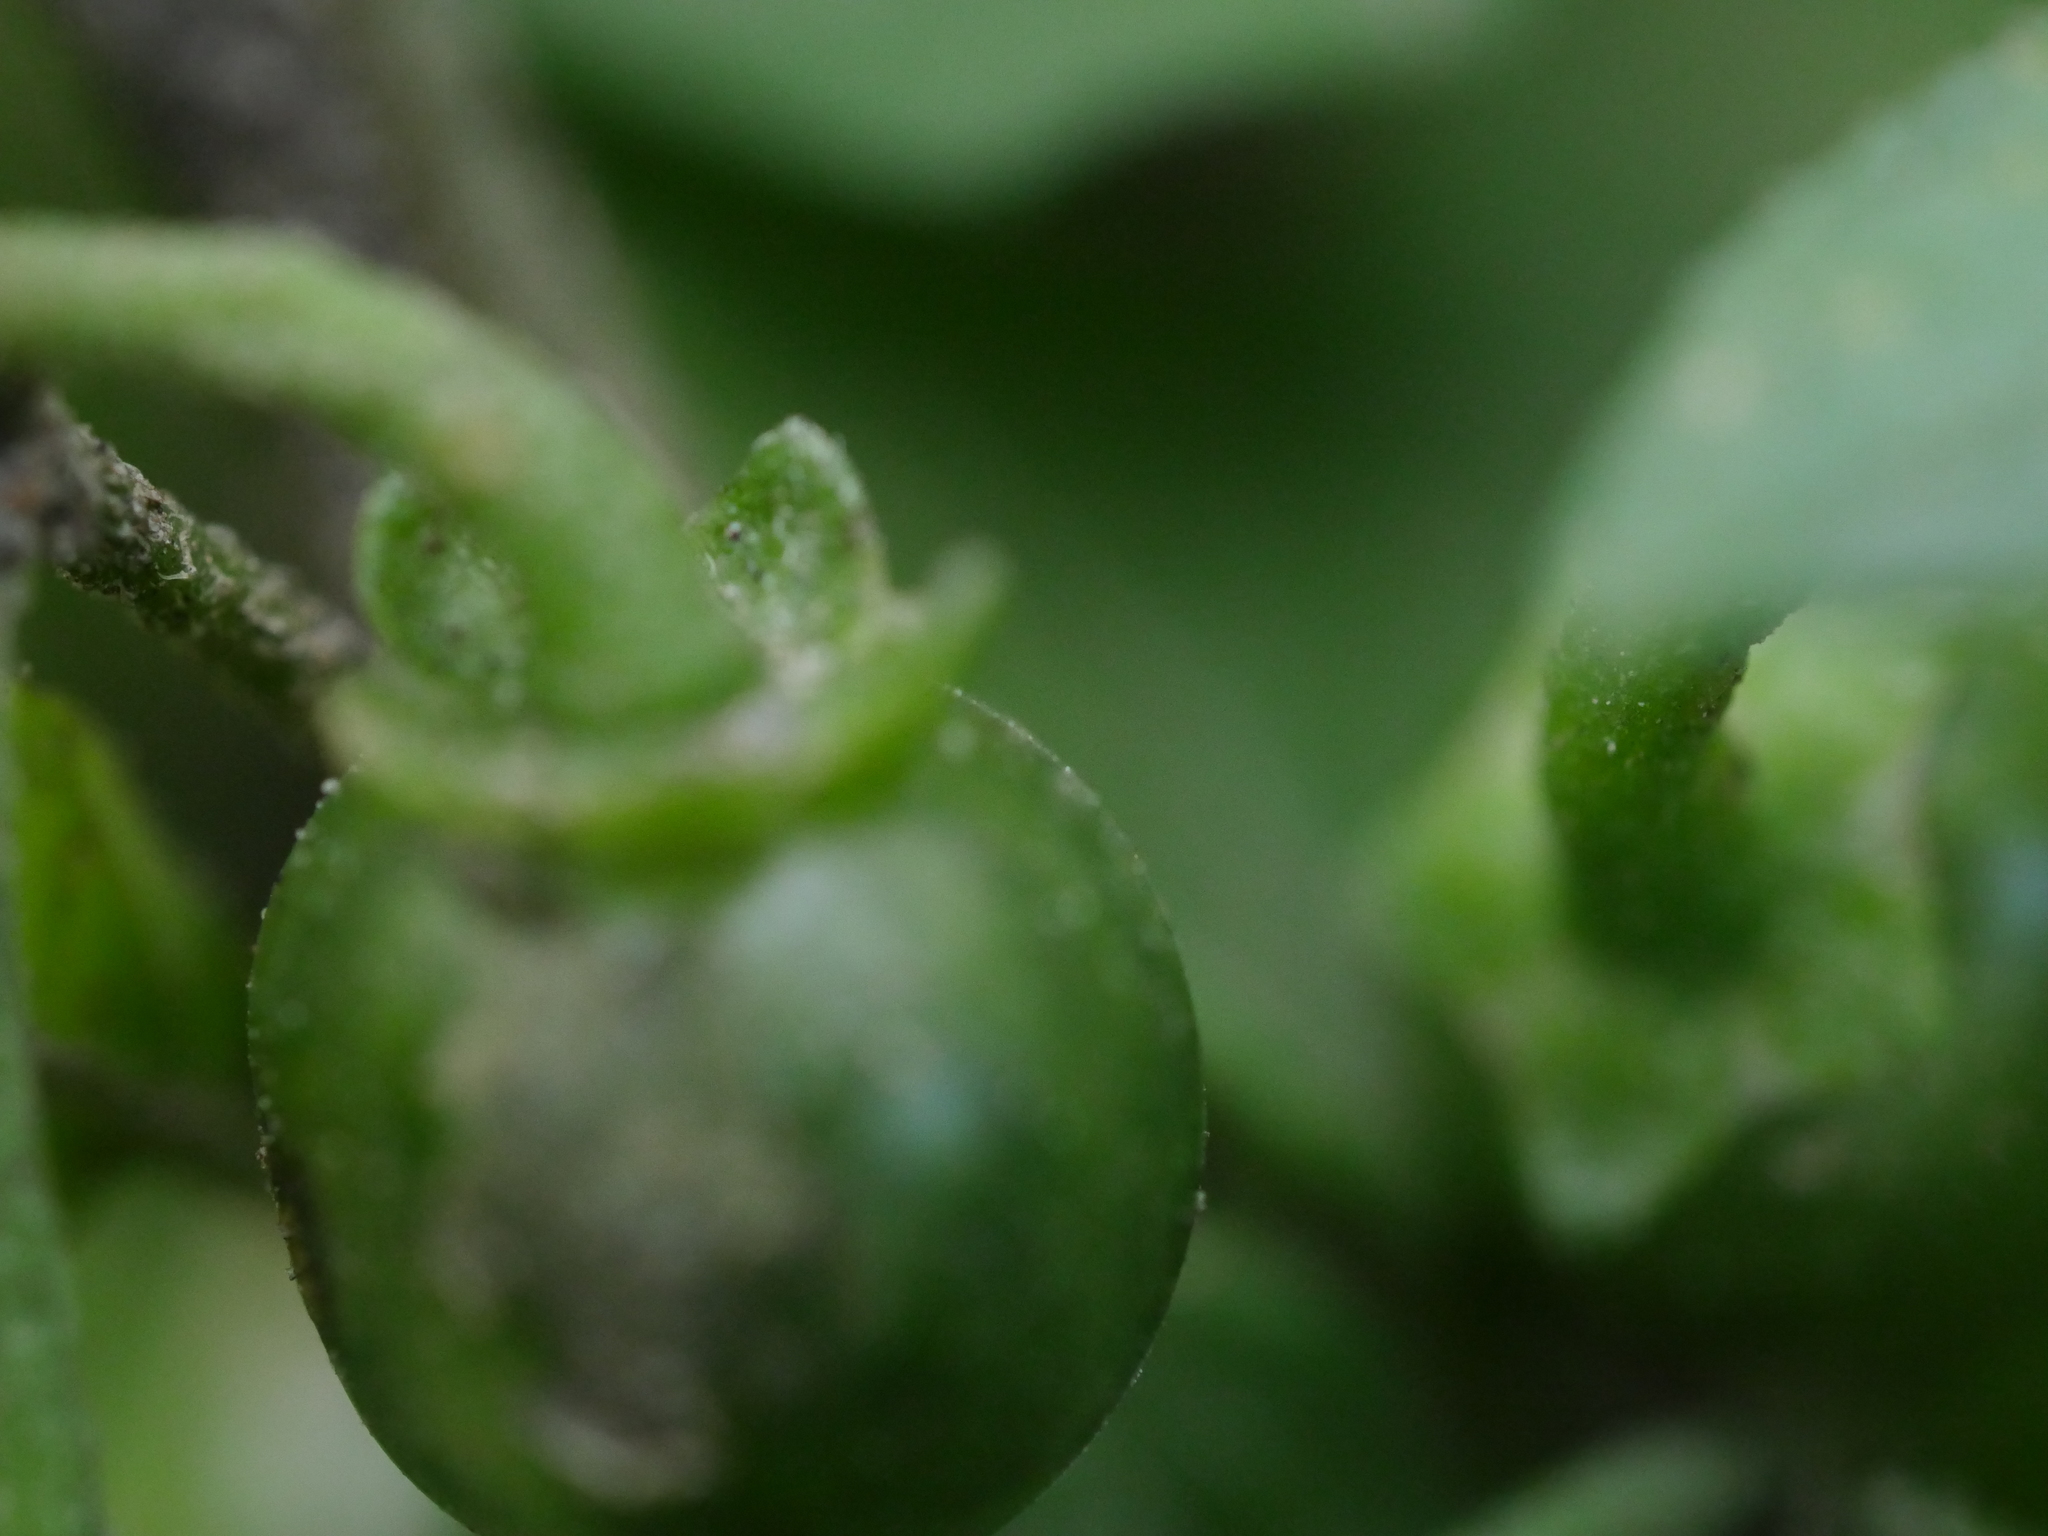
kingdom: Plantae
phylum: Tracheophyta
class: Magnoliopsida
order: Solanales
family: Solanaceae
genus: Solanum
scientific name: Solanum nigrum
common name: Black nightshade
